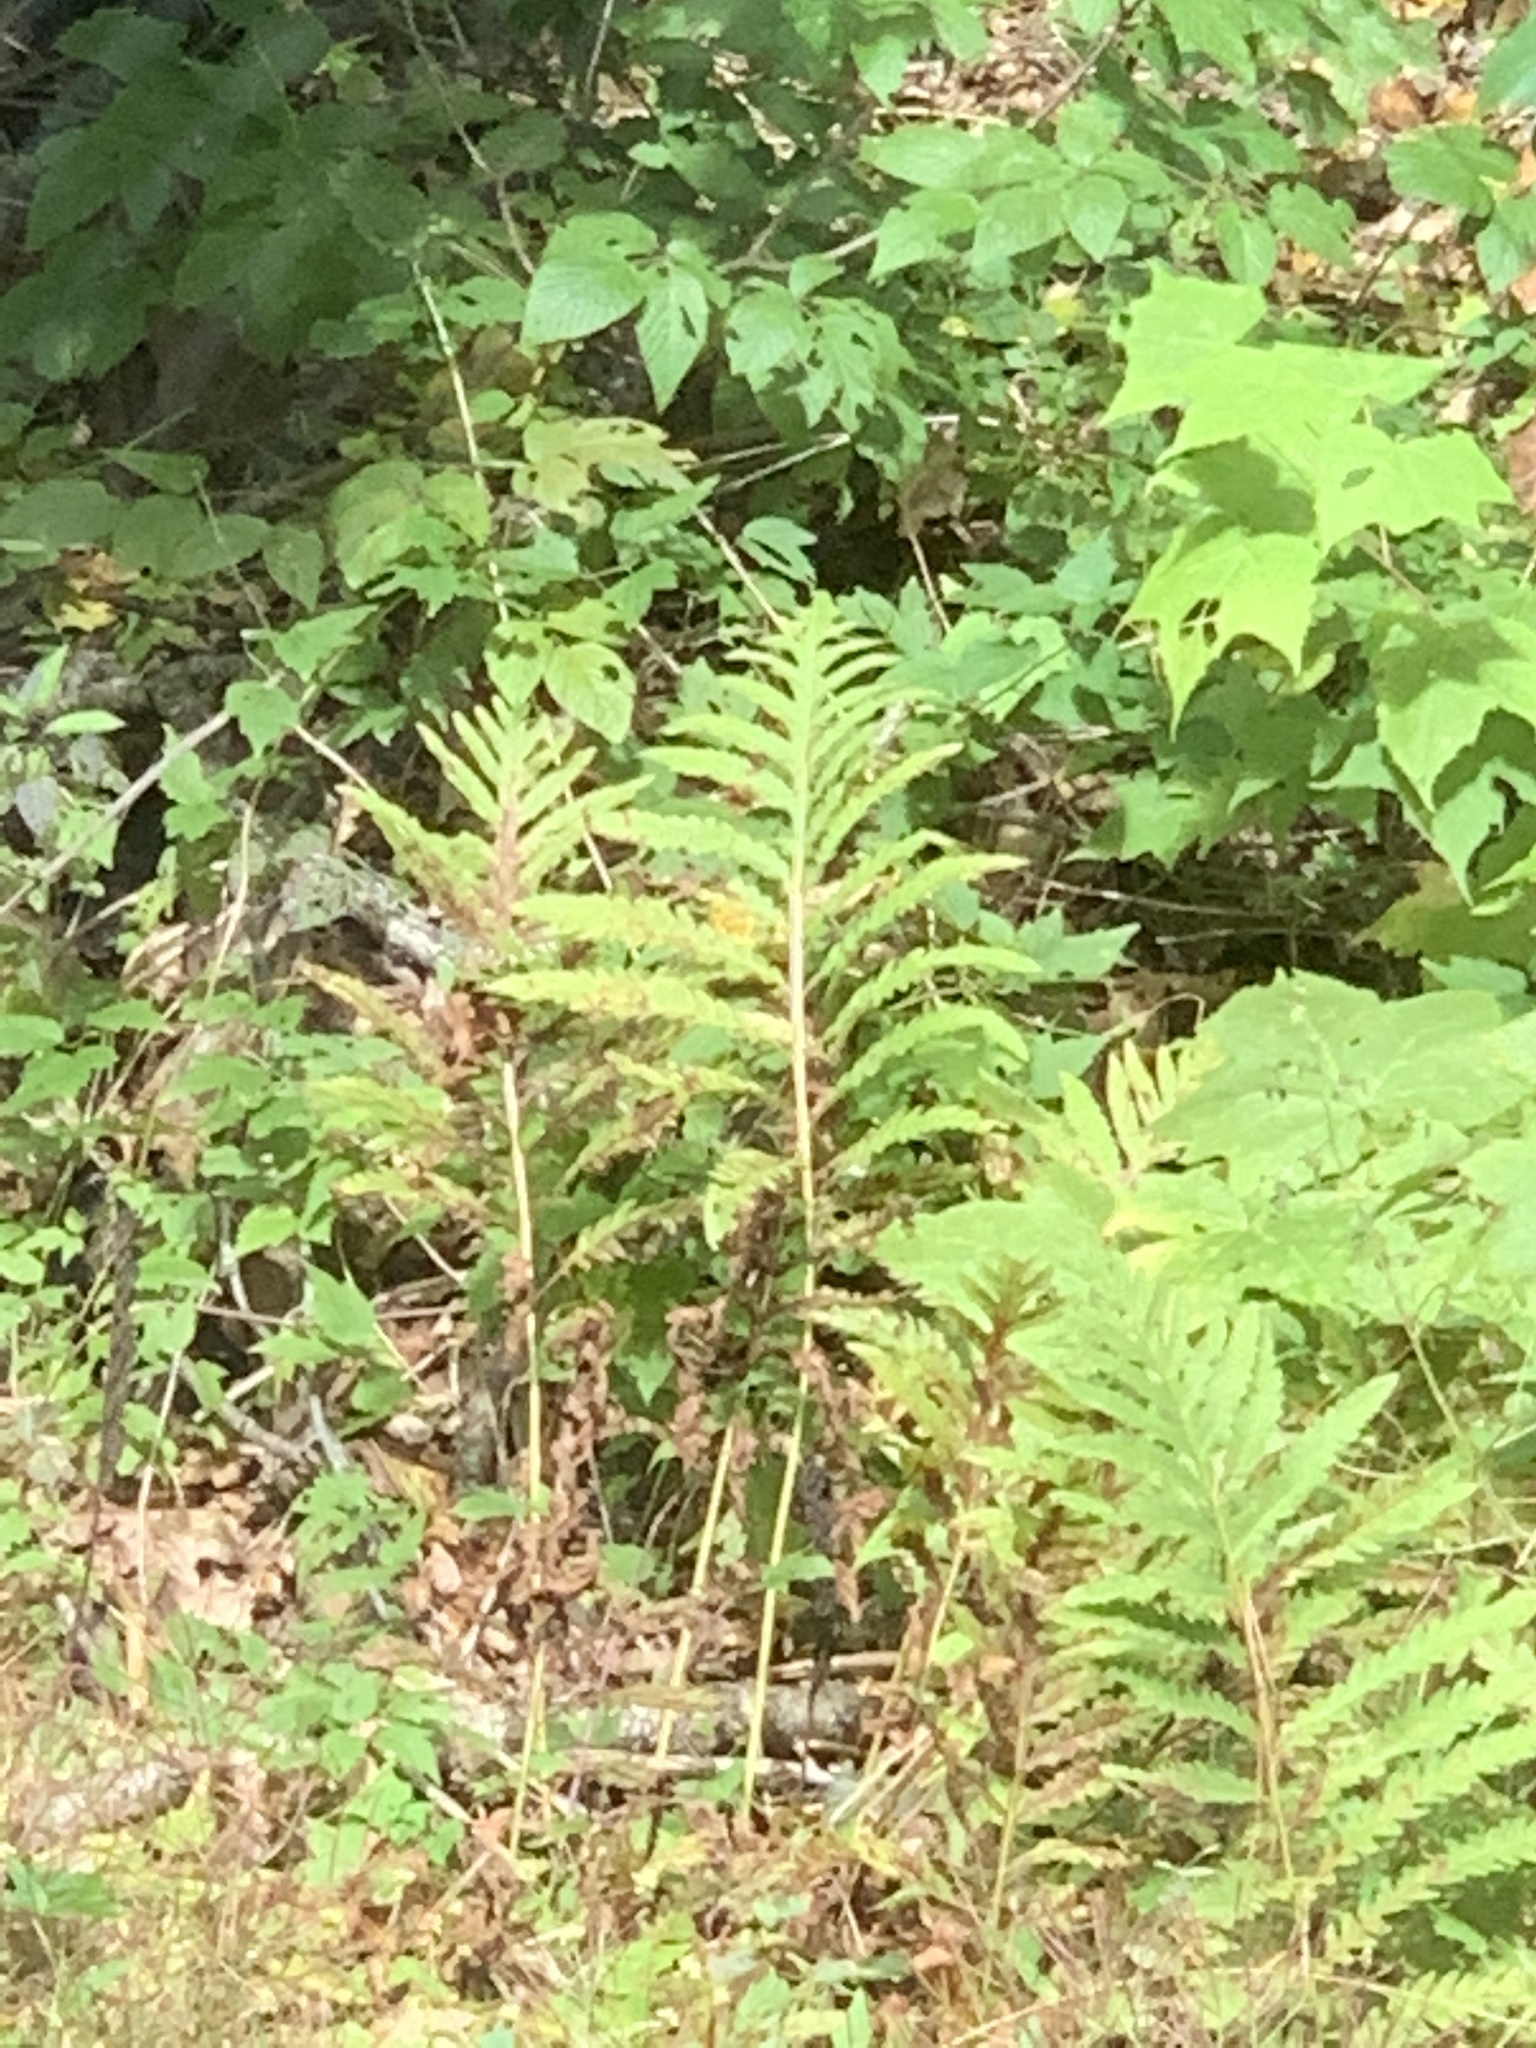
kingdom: Plantae
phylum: Tracheophyta
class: Polypodiopsida
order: Polypodiales
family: Onocleaceae
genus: Onoclea
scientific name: Onoclea sensibilis
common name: Sensitive fern
